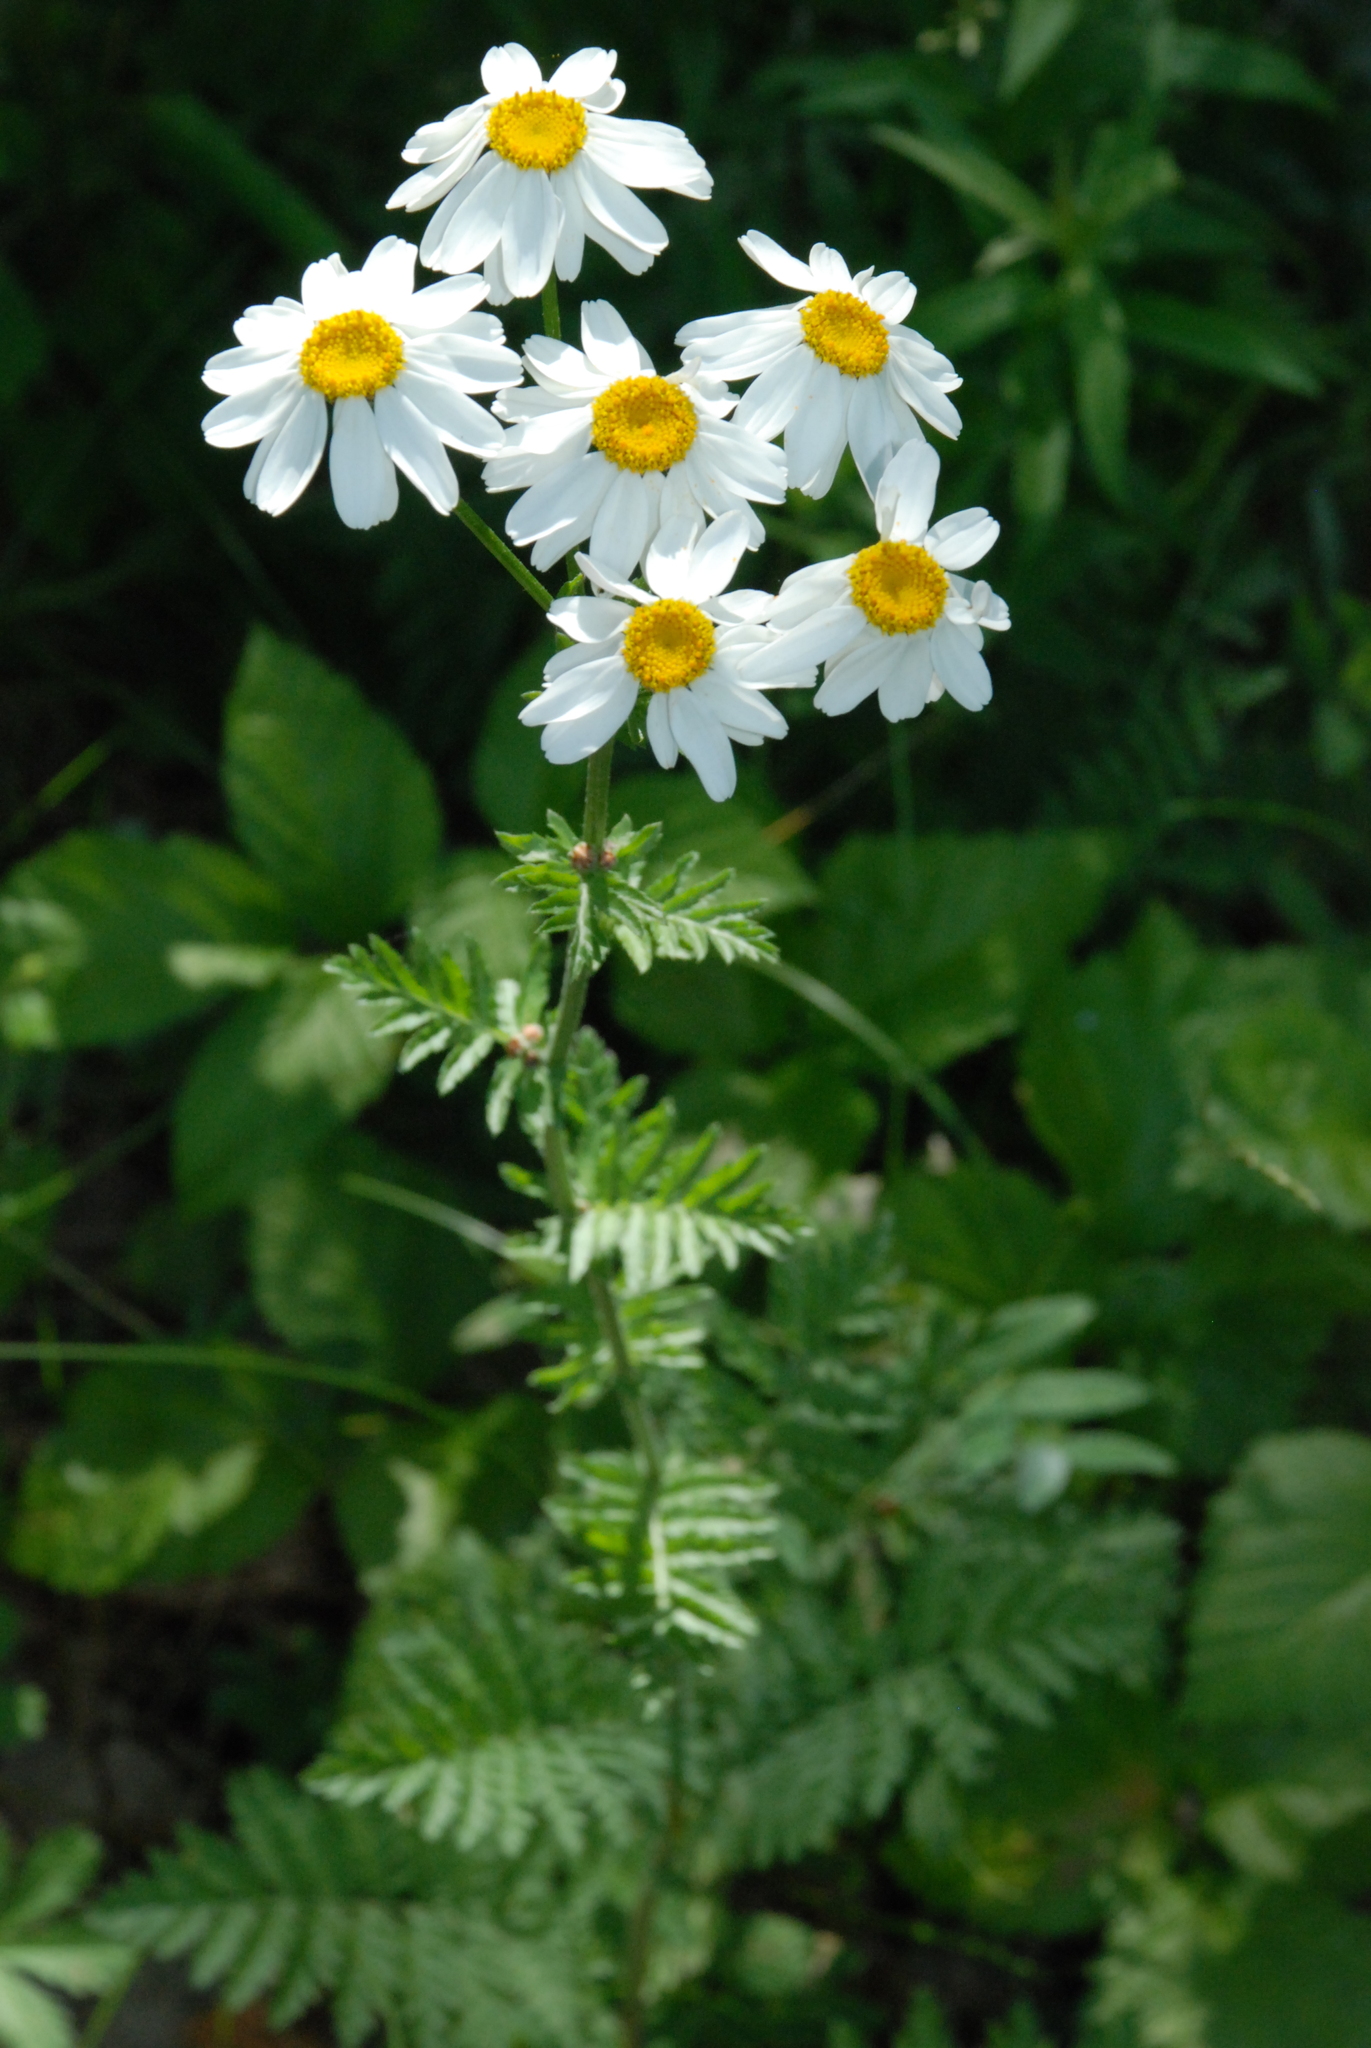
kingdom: Plantae
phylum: Tracheophyta
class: Magnoliopsida
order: Asterales
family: Asteraceae
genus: Tanacetum
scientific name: Tanacetum corymbosum
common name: Scentless feverfew
